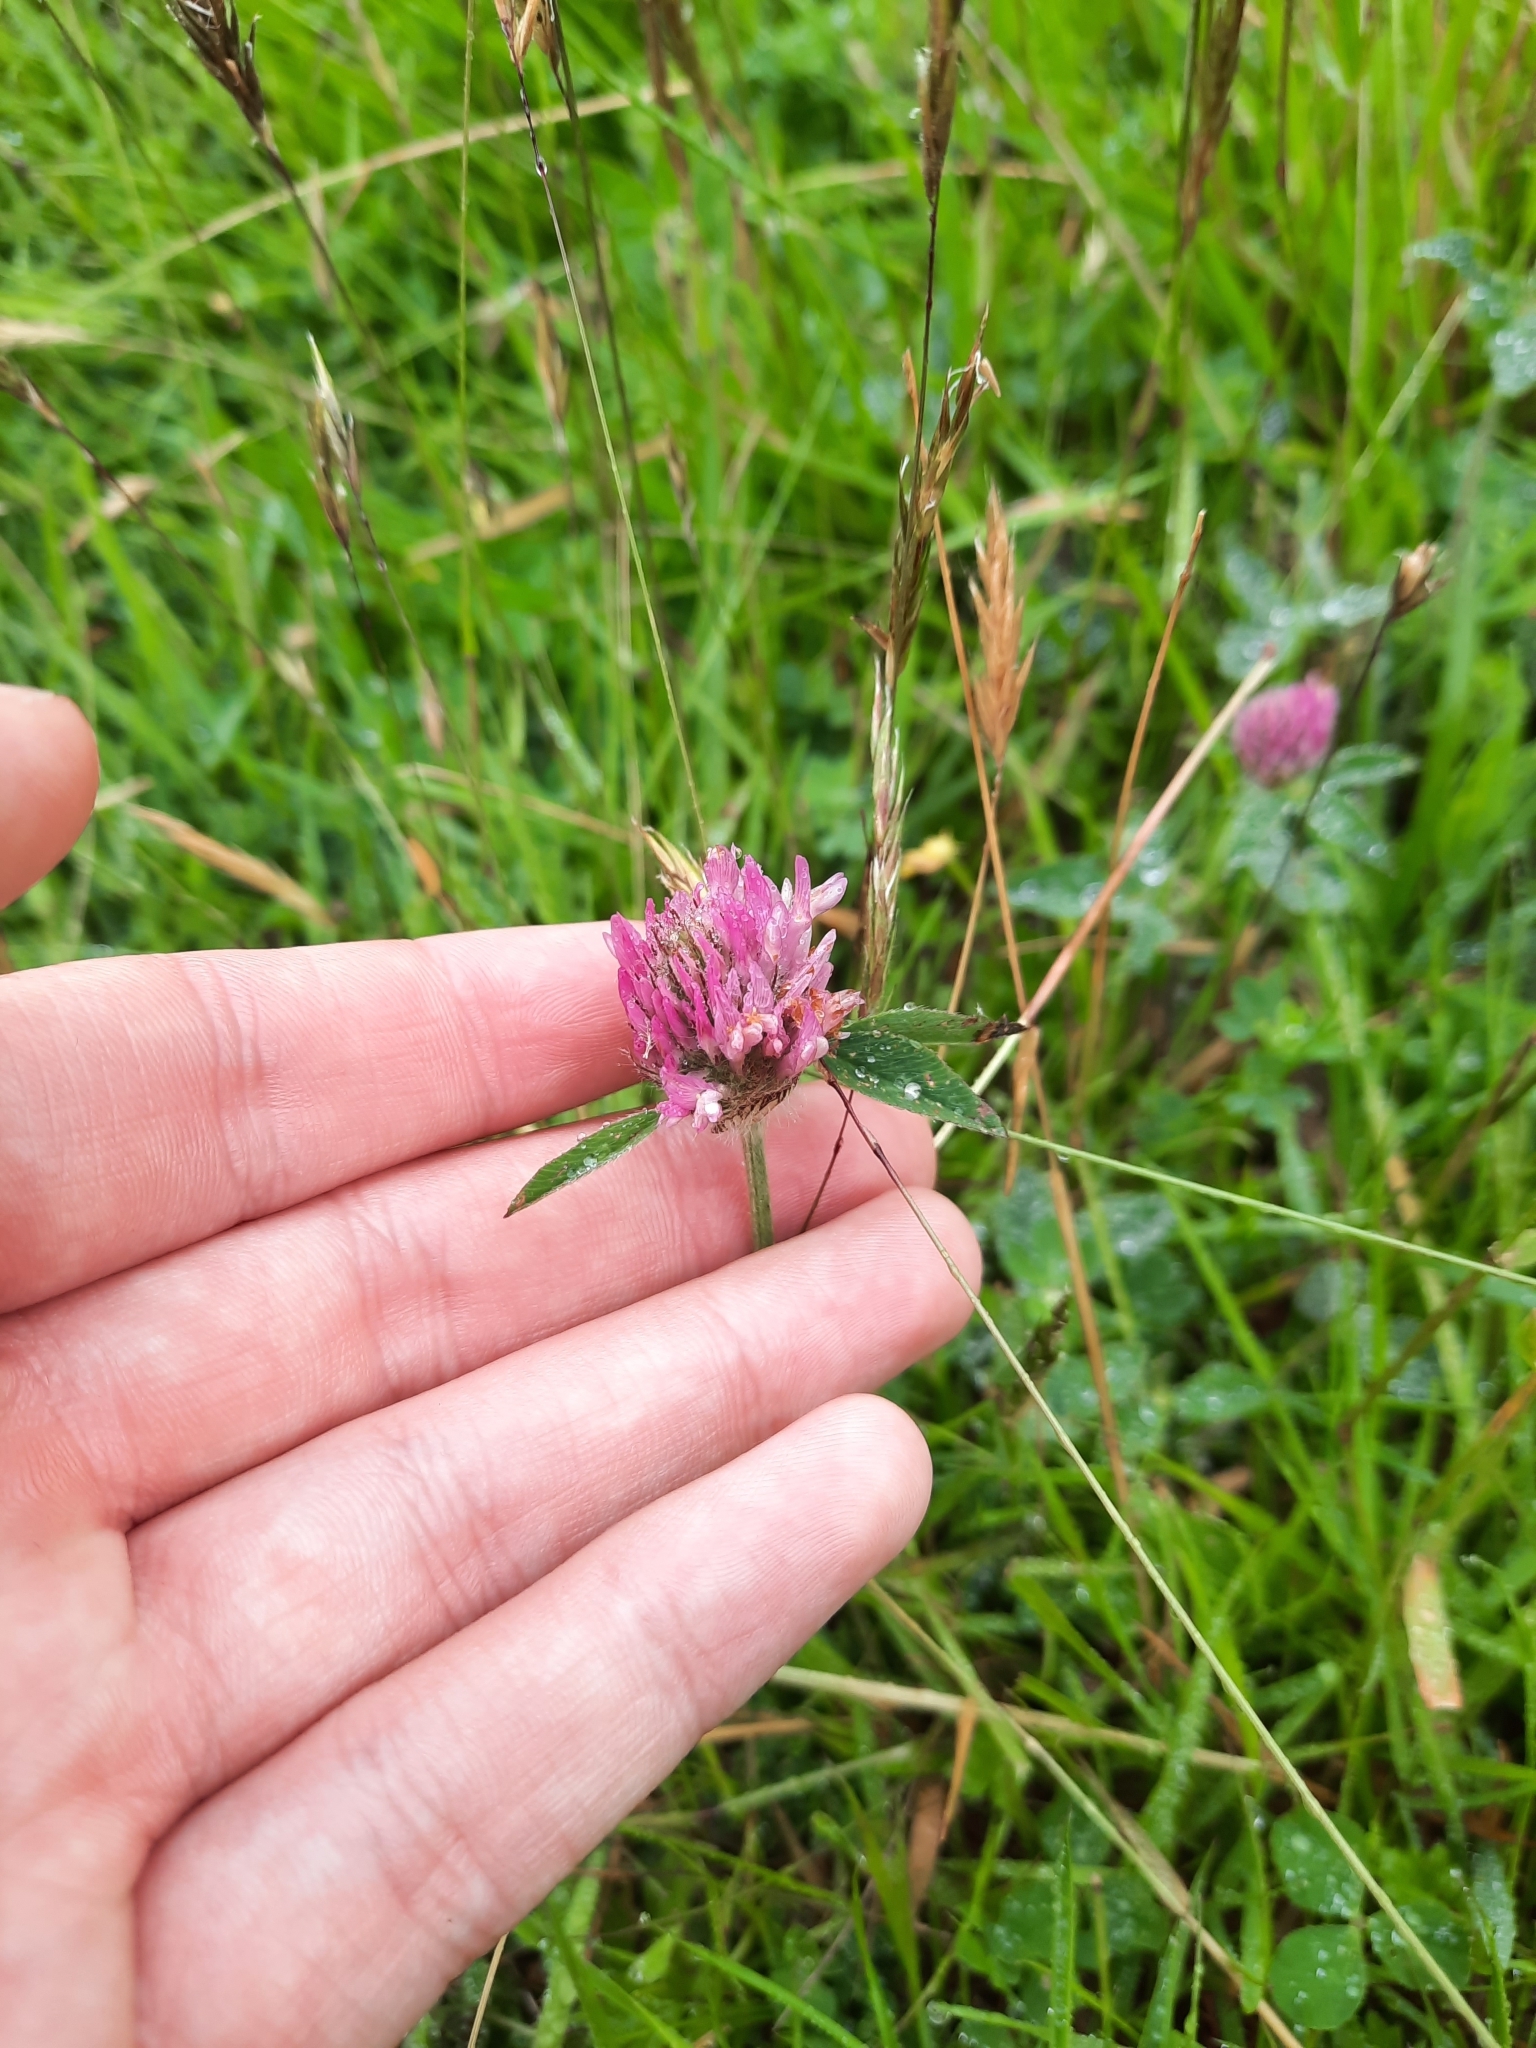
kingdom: Plantae
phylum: Tracheophyta
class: Magnoliopsida
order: Fabales
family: Fabaceae
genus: Trifolium
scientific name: Trifolium pratense
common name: Red clover
